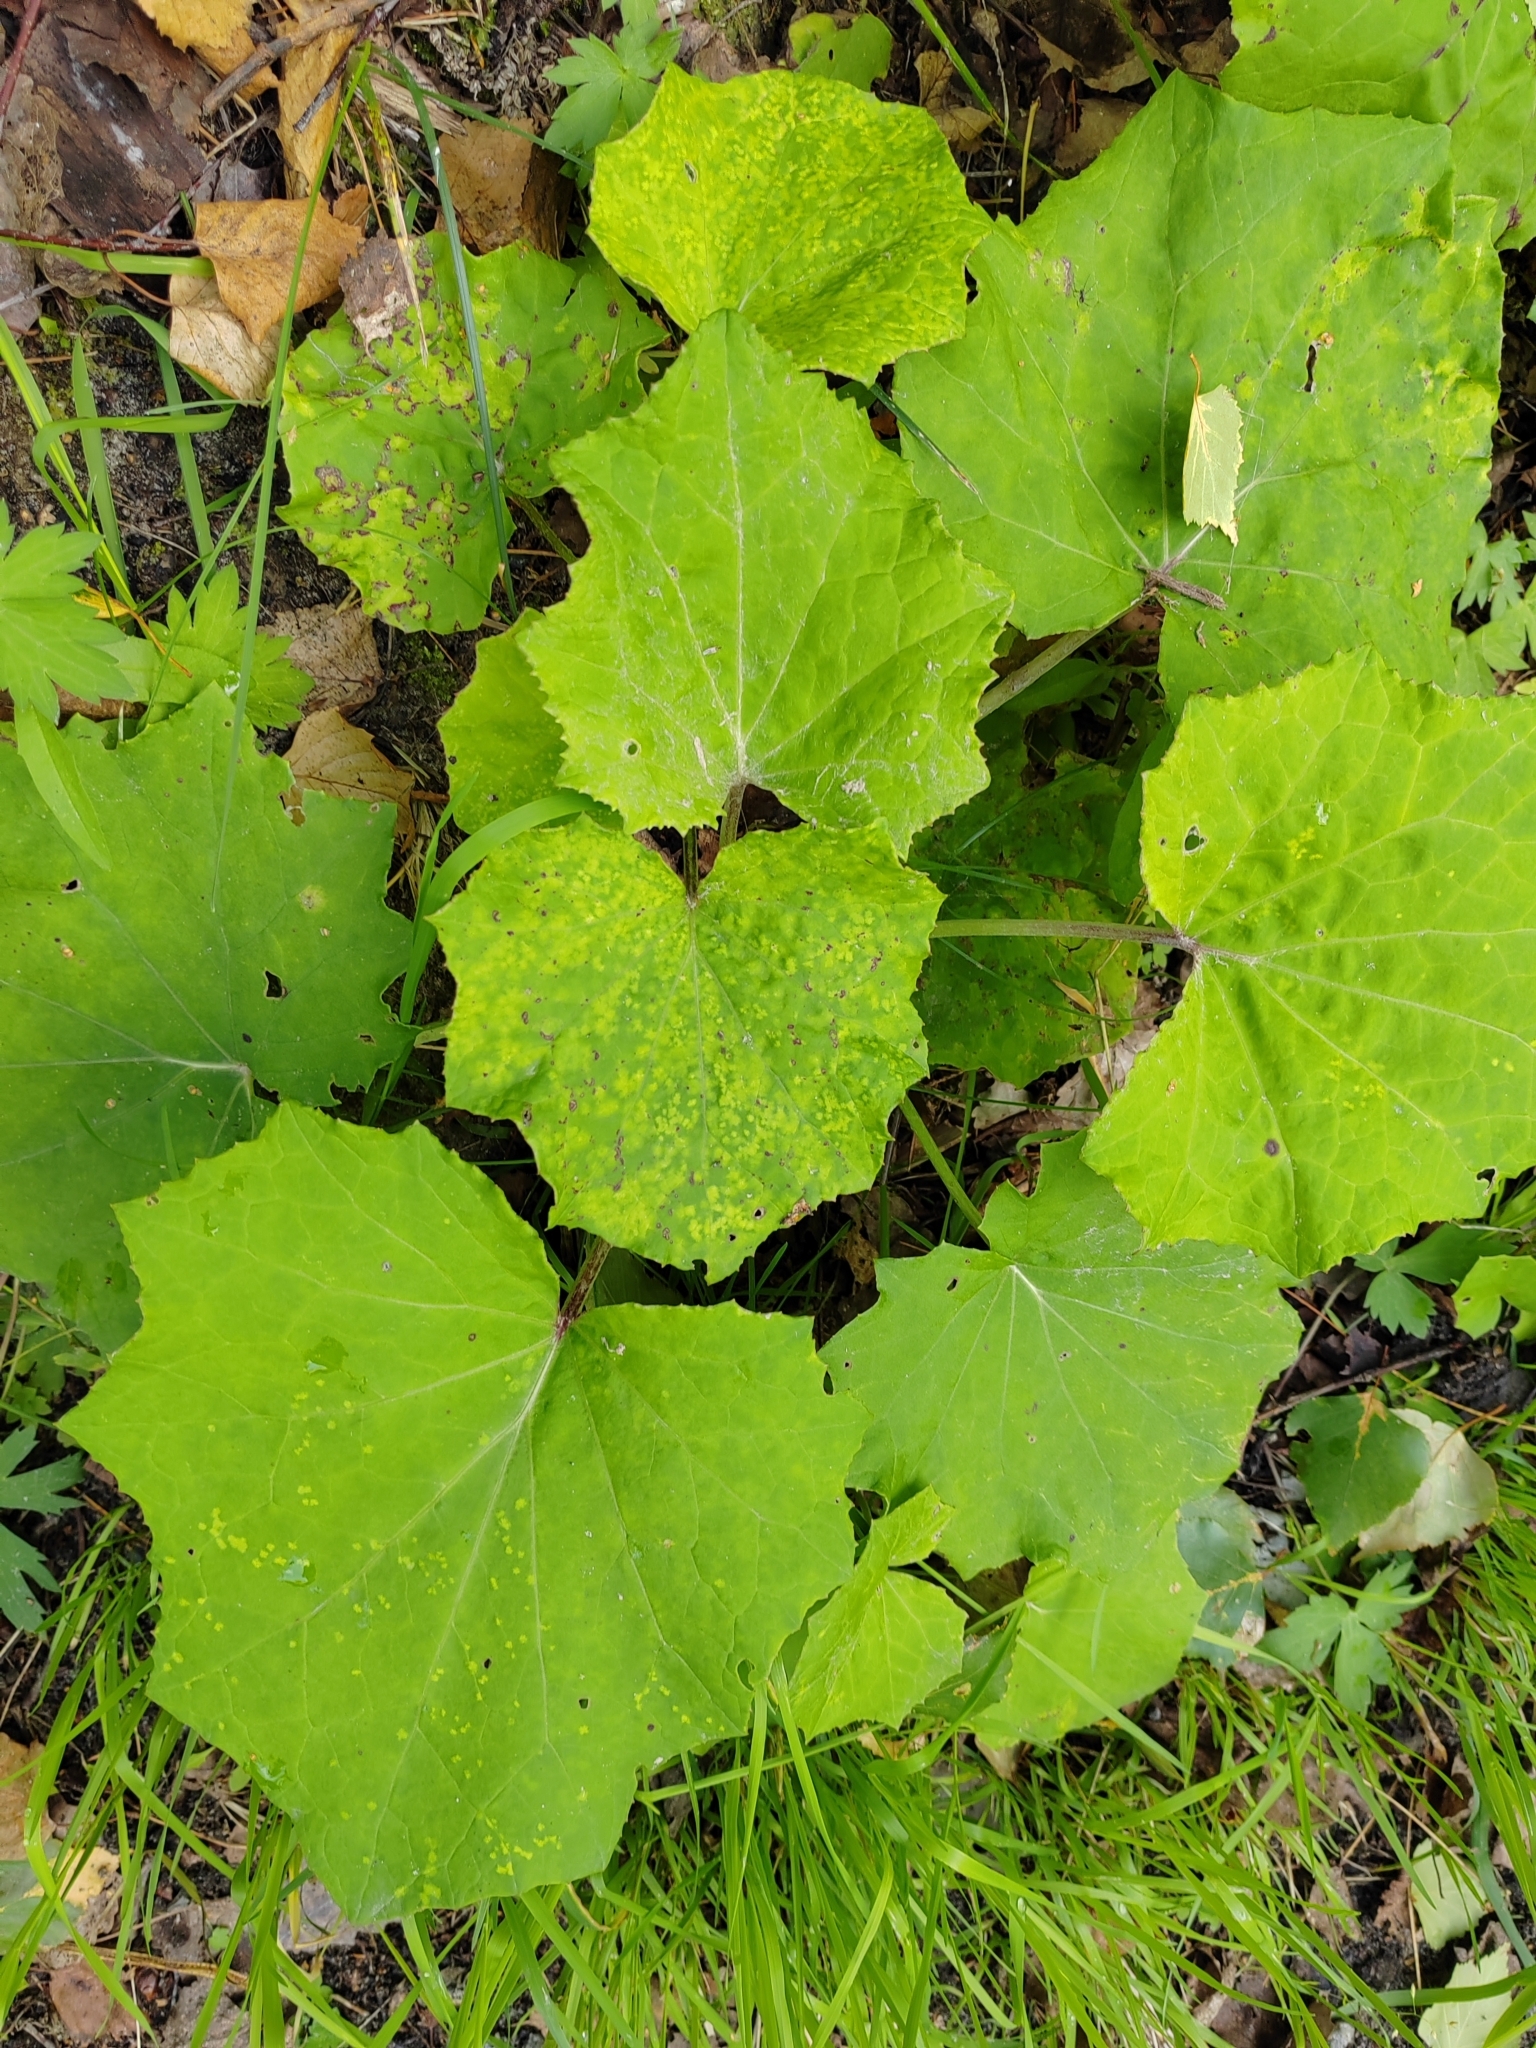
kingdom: Plantae
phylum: Tracheophyta
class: Magnoliopsida
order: Asterales
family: Asteraceae
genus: Tussilago
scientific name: Tussilago farfara
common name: Coltsfoot
